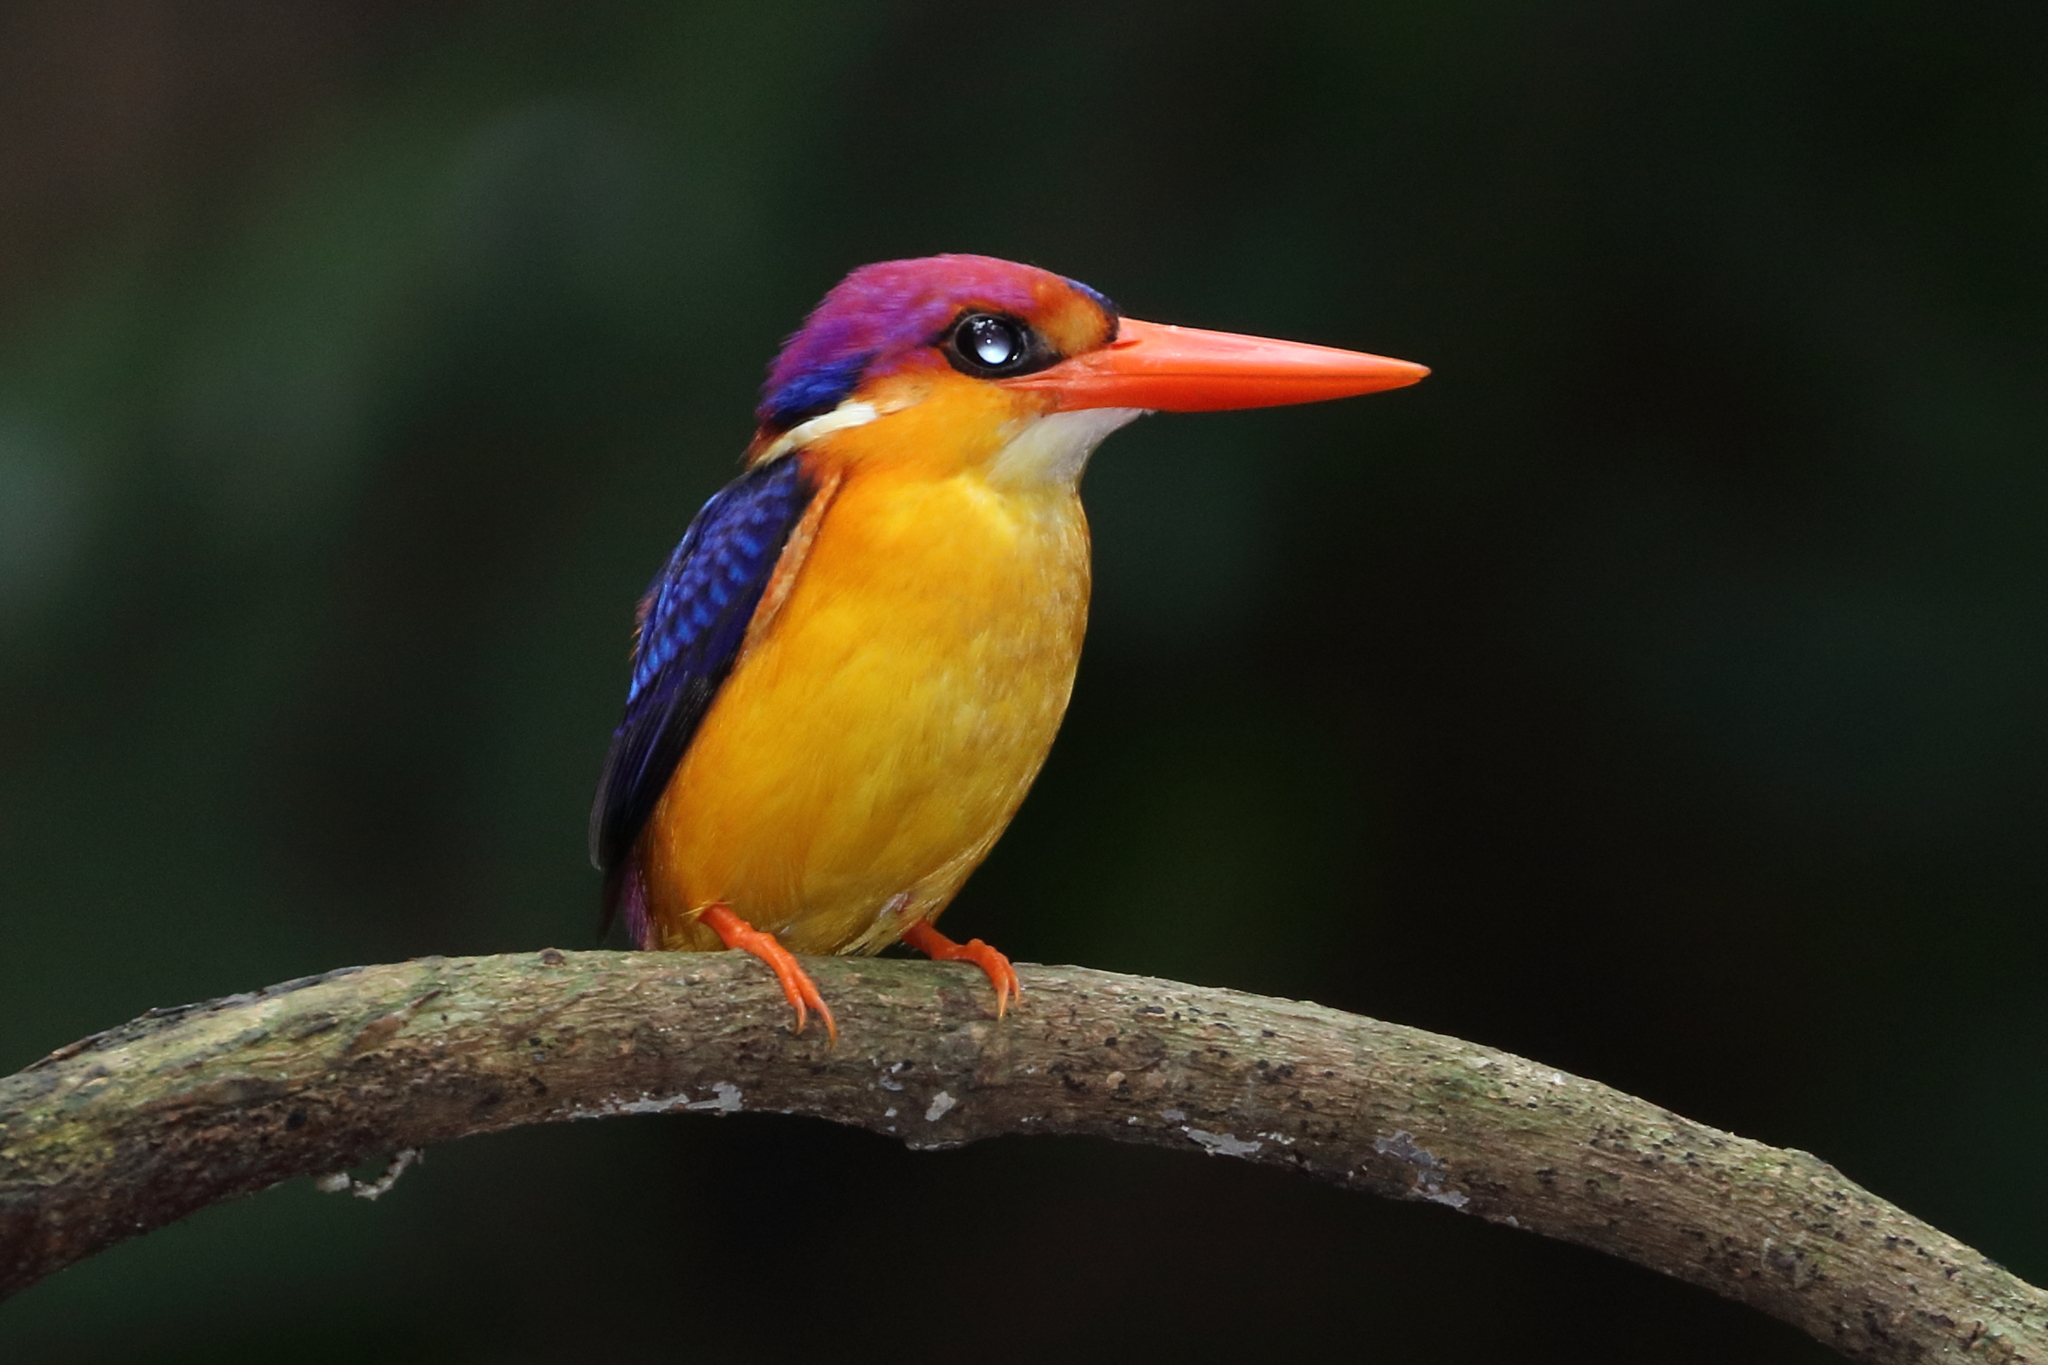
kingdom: Animalia
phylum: Chordata
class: Aves
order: Coraciiformes
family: Alcedinidae
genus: Ceyx
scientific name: Ceyx erithaca
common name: Oriental dwarf kingfisher
